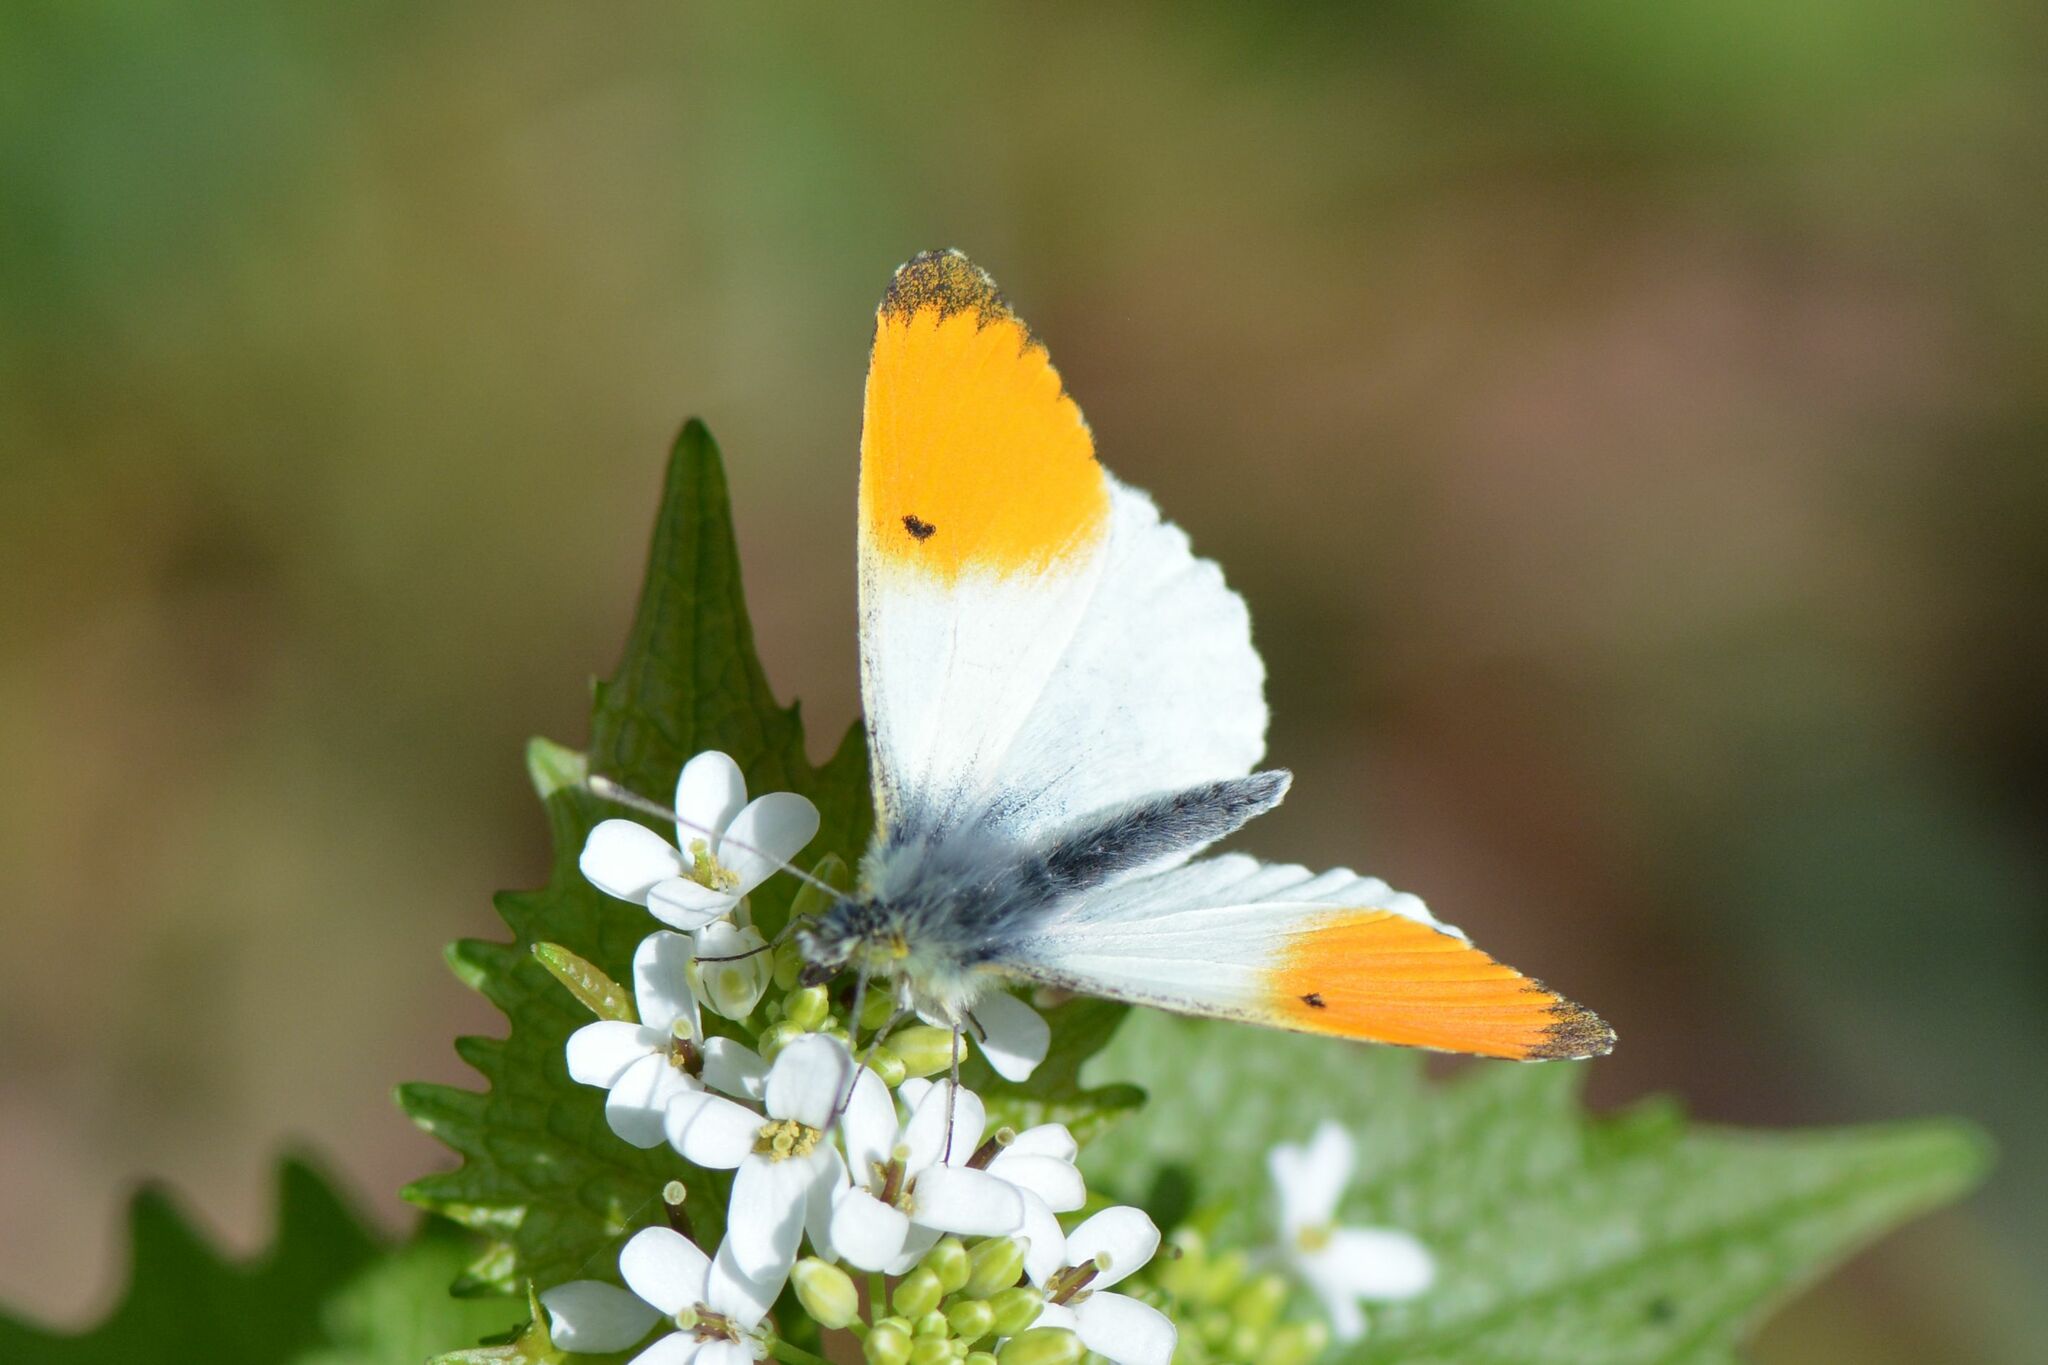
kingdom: Animalia
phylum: Arthropoda
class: Insecta
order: Lepidoptera
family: Pieridae
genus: Anthocharis
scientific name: Anthocharis cardamines
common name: Orange-tip
